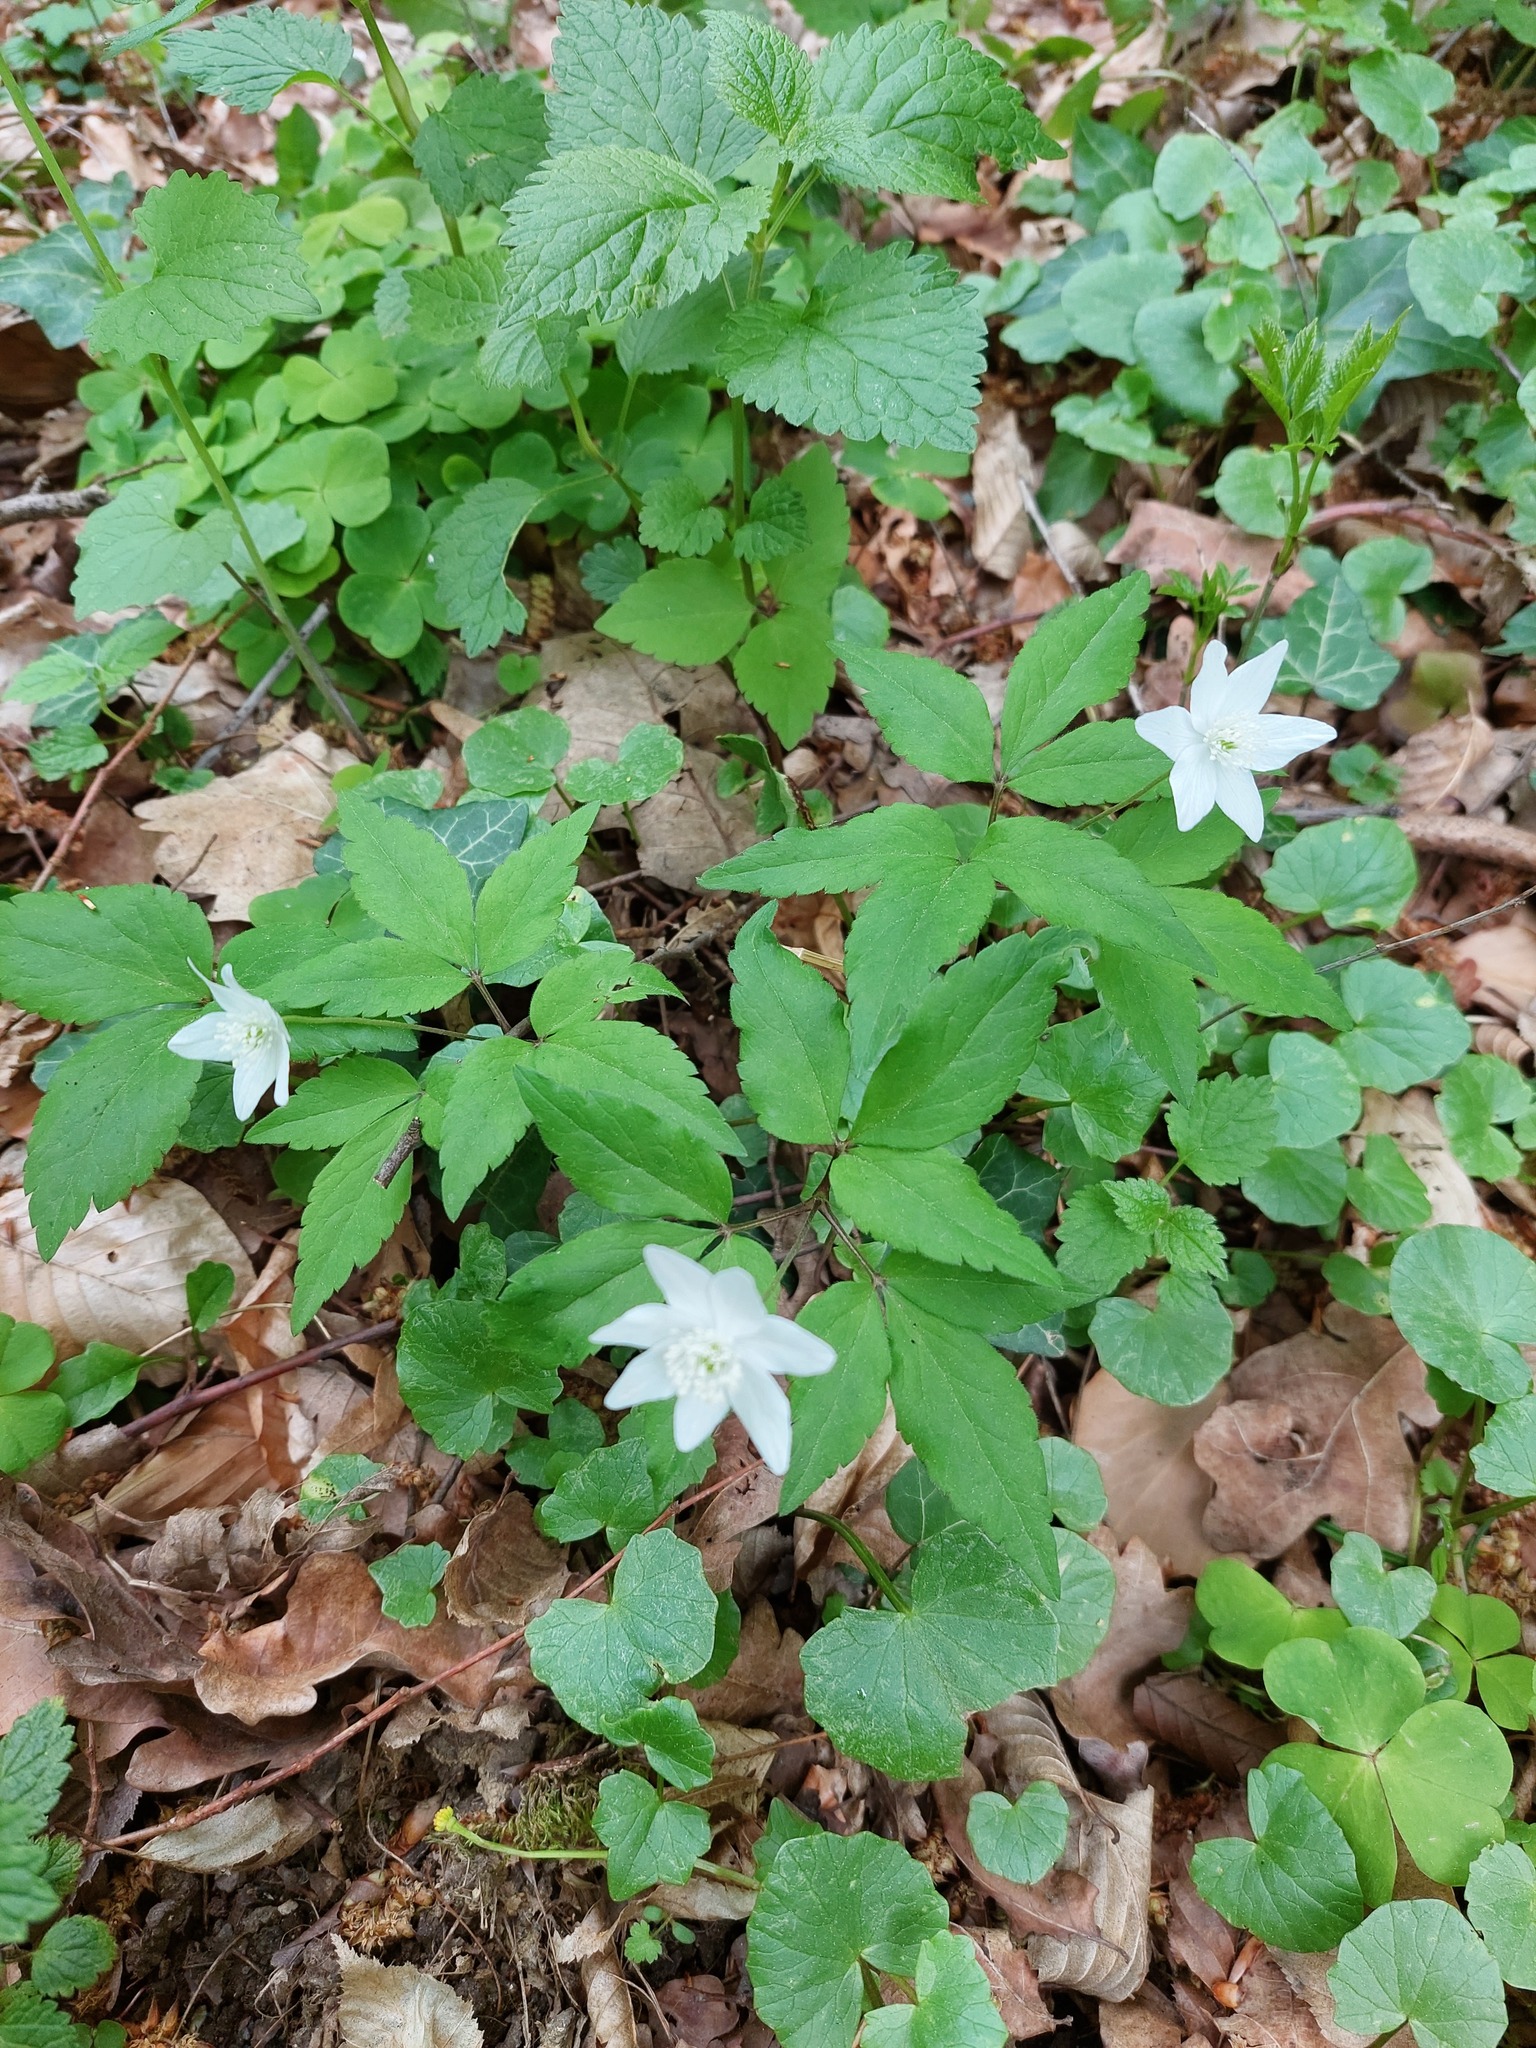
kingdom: Plantae
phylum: Tracheophyta
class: Magnoliopsida
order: Ranunculales
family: Ranunculaceae
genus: Anemone
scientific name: Anemone trifolia
